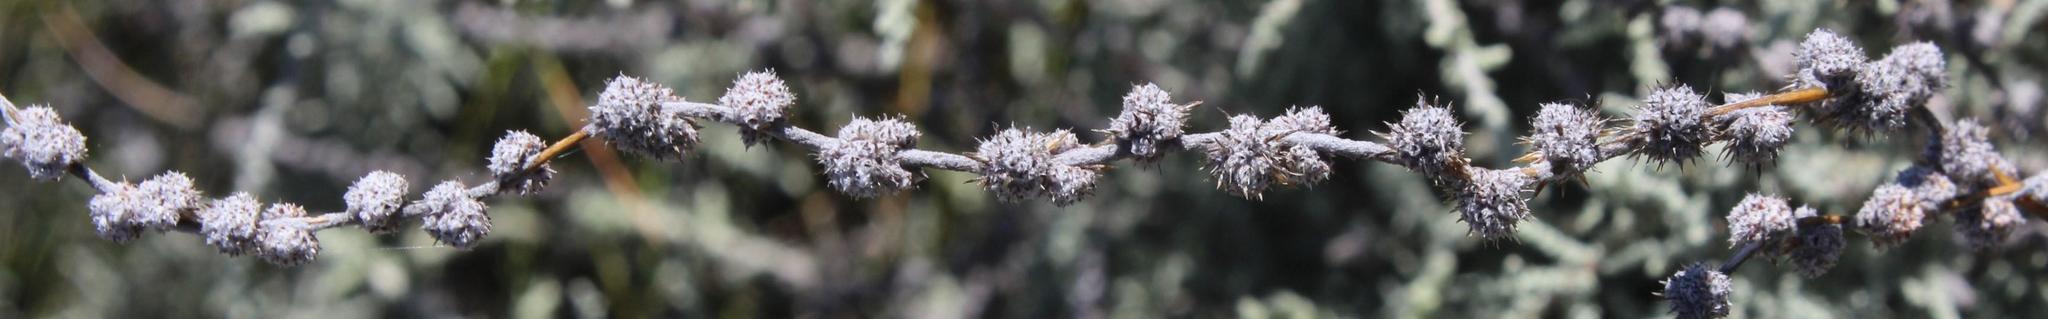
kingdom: Plantae
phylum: Tracheophyta
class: Magnoliopsida
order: Asterales
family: Asteraceae
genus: Seriphium
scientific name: Seriphium plumosum
